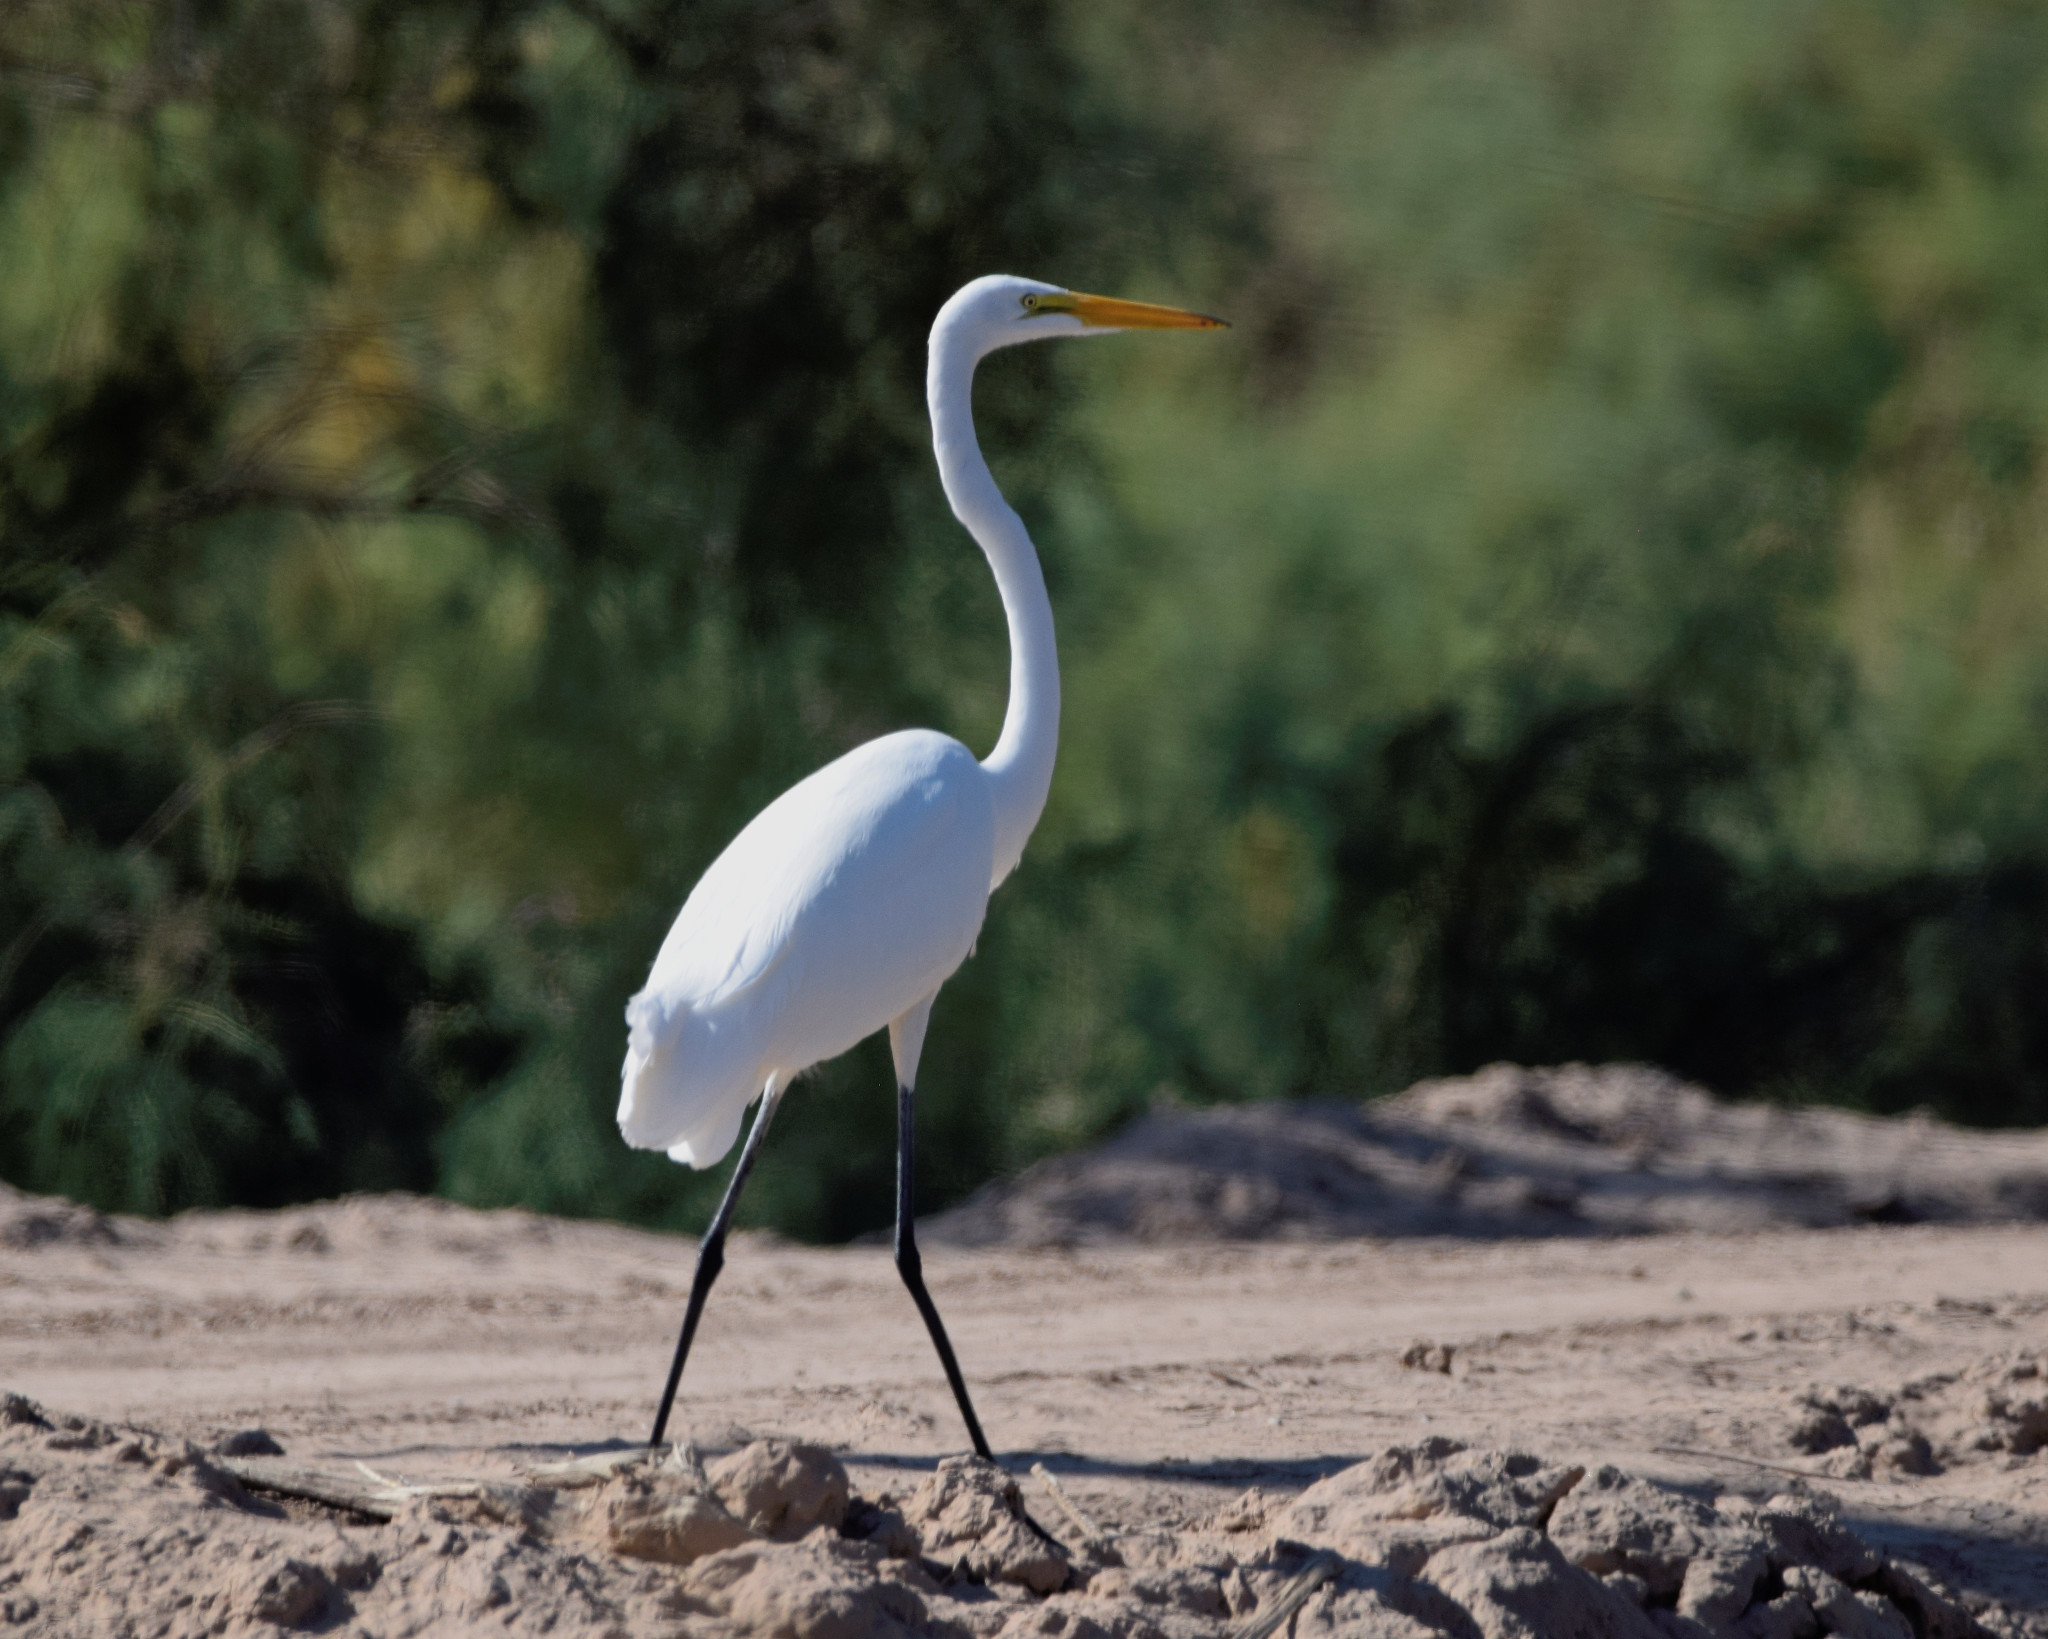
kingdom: Animalia
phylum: Chordata
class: Aves
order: Pelecaniformes
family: Ardeidae
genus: Ardea
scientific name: Ardea alba
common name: Great egret
